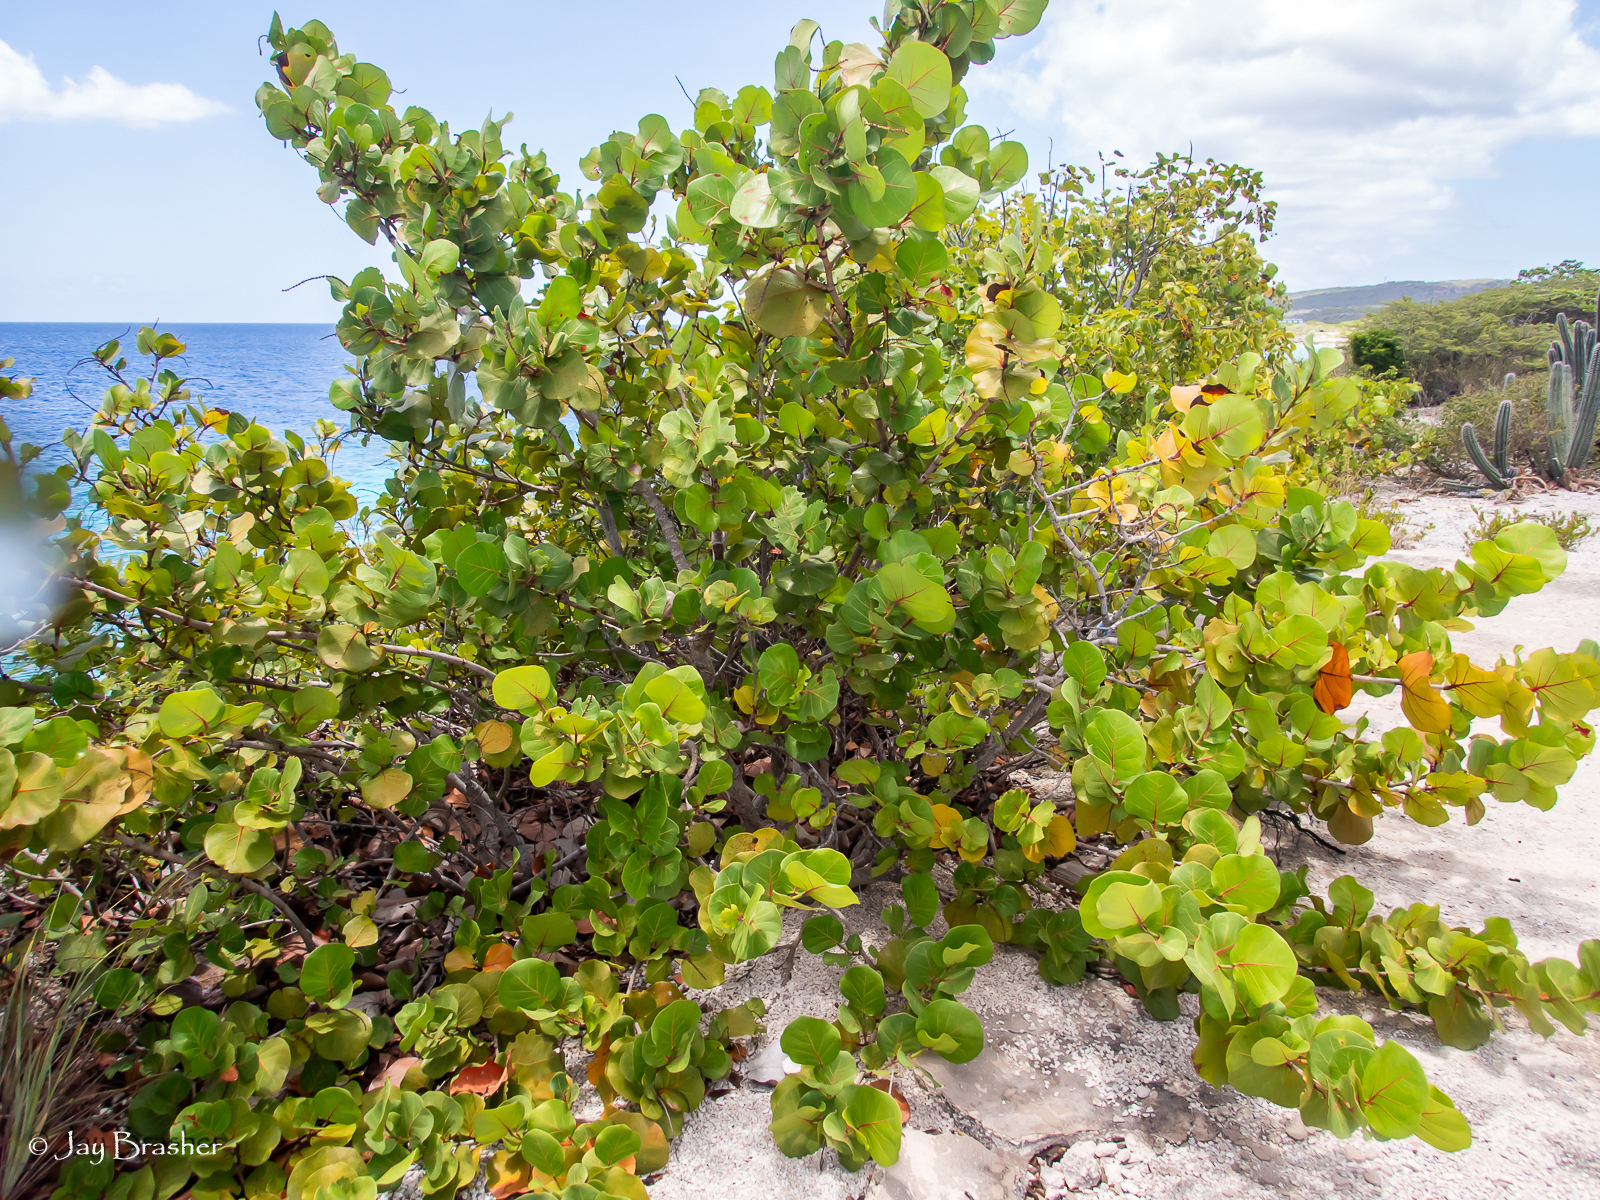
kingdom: Plantae
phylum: Tracheophyta
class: Magnoliopsida
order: Caryophyllales
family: Polygonaceae
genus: Coccoloba
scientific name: Coccoloba uvifera
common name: Seagrape
